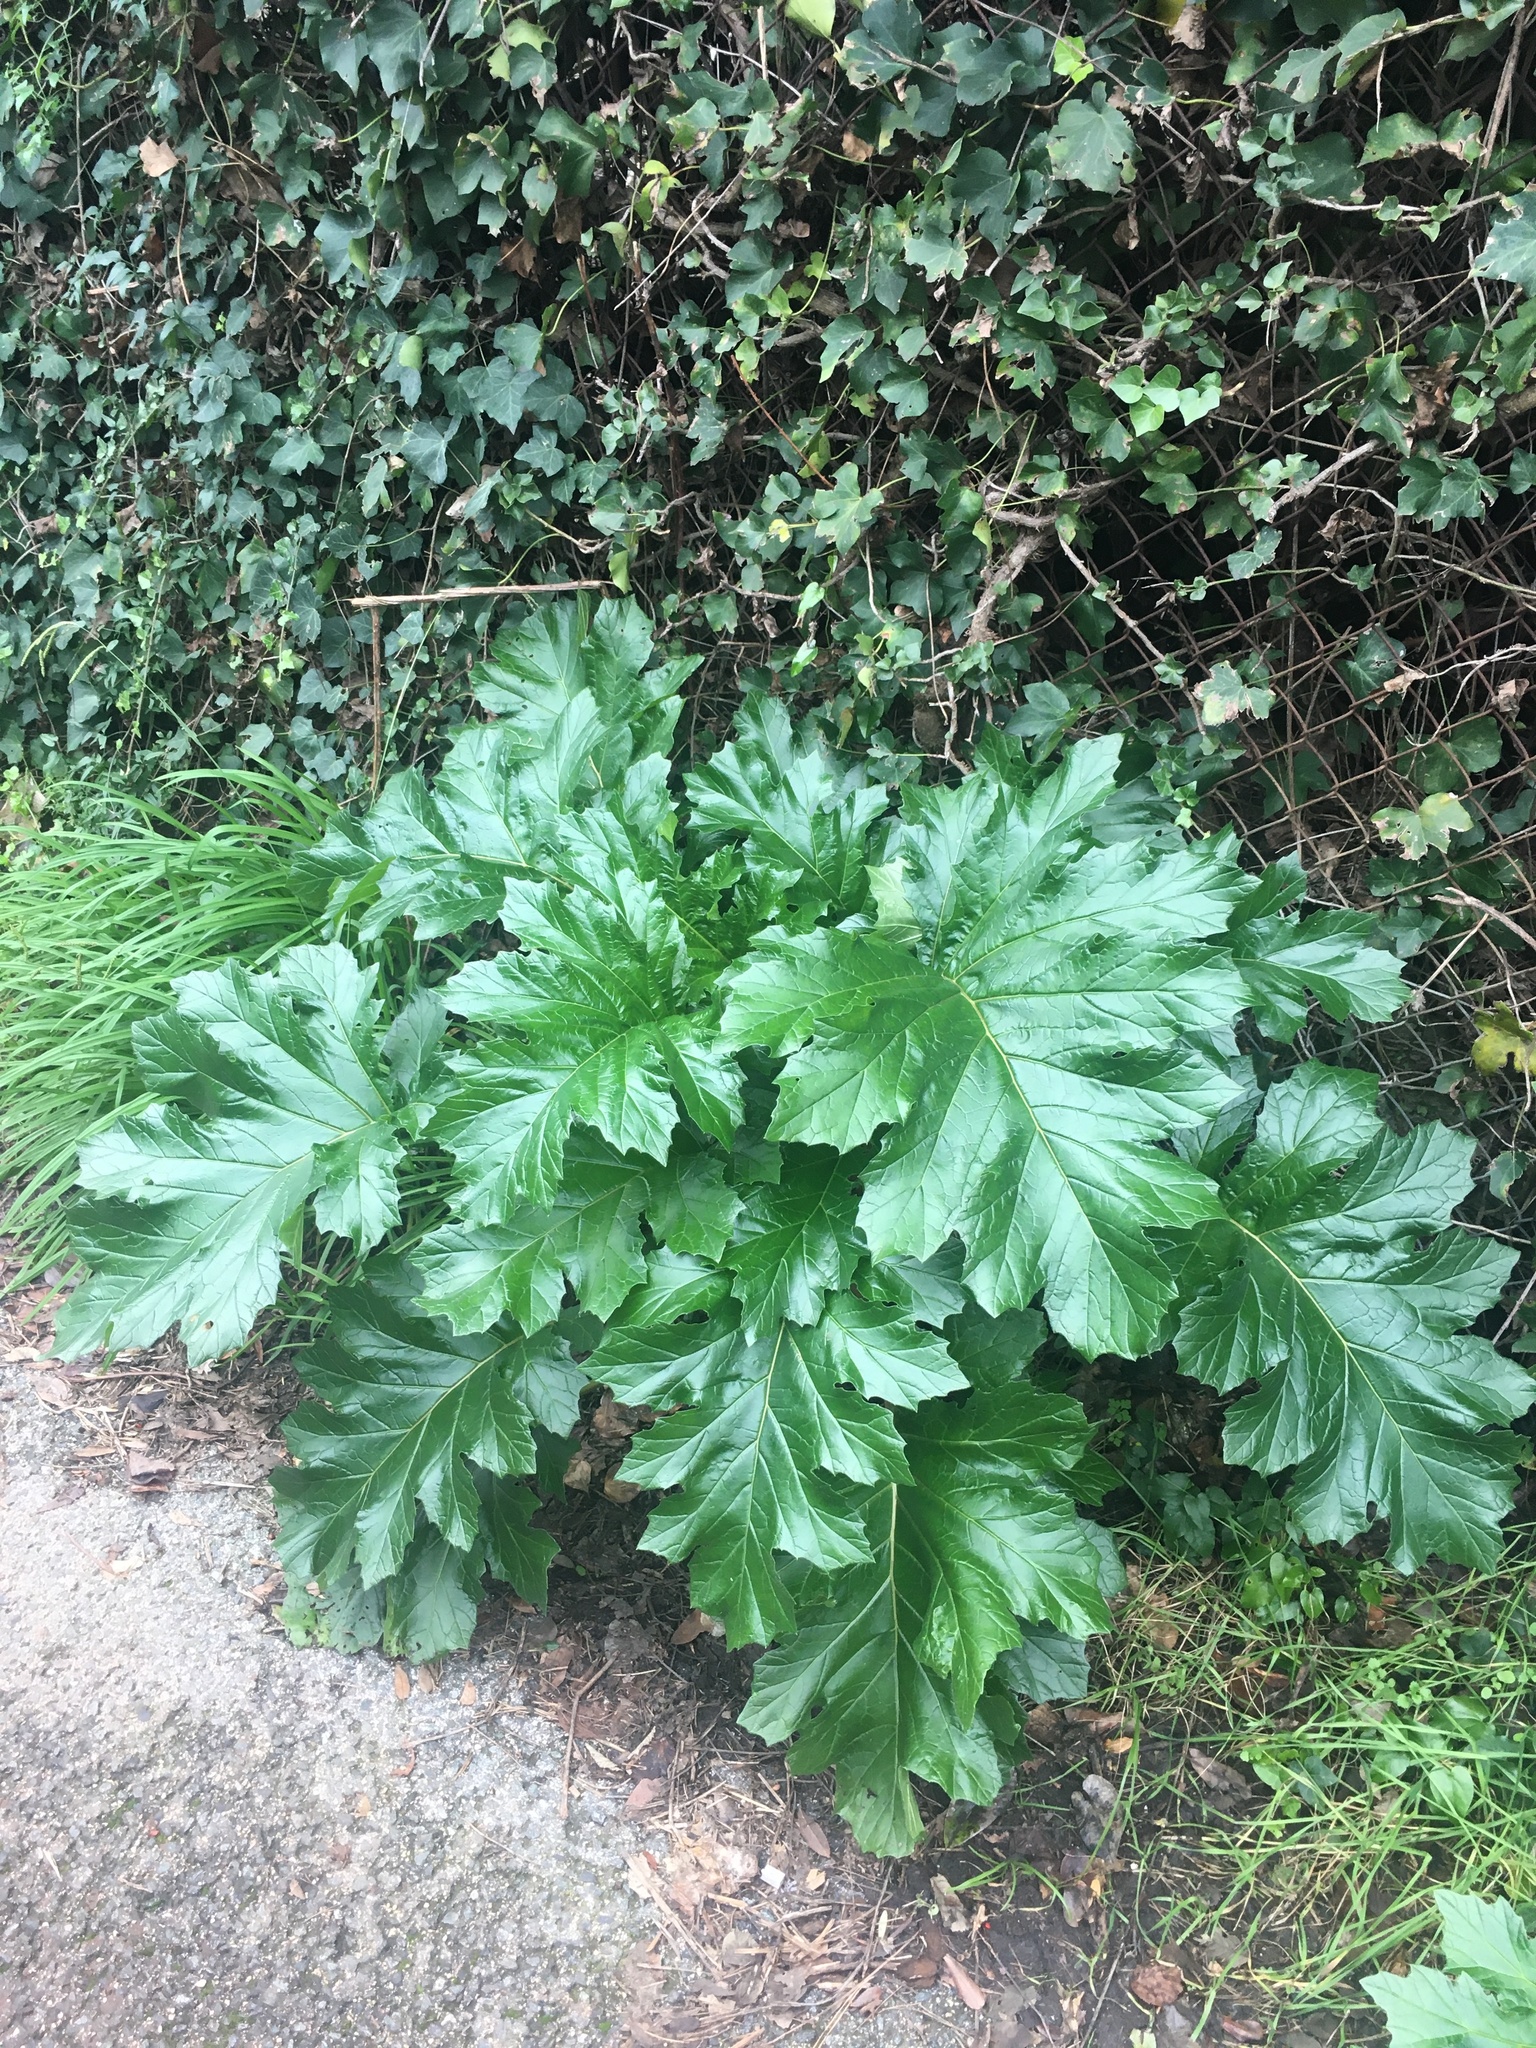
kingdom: Plantae
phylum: Tracheophyta
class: Magnoliopsida
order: Lamiales
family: Acanthaceae
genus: Acanthus
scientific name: Acanthus mollis
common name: Bear's-breech
